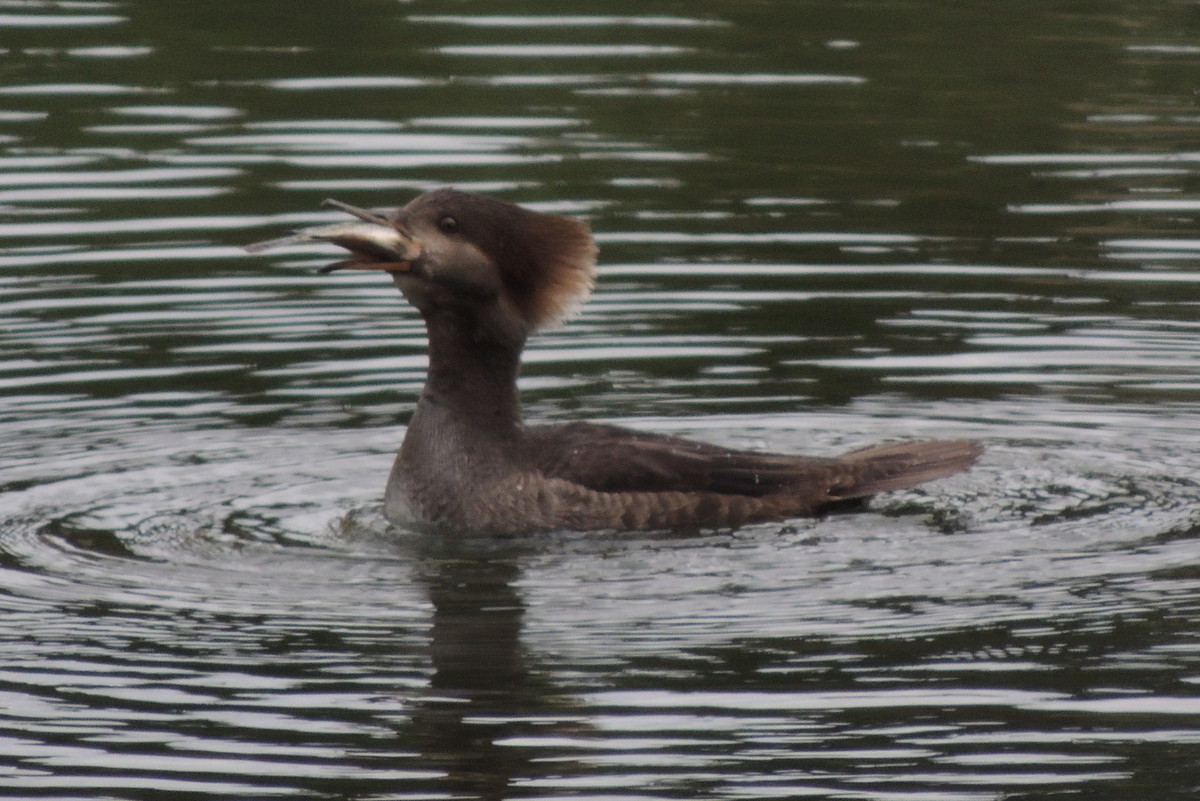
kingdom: Animalia
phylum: Chordata
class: Aves
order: Anseriformes
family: Anatidae
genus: Lophodytes
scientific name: Lophodytes cucullatus
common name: Hooded merganser
